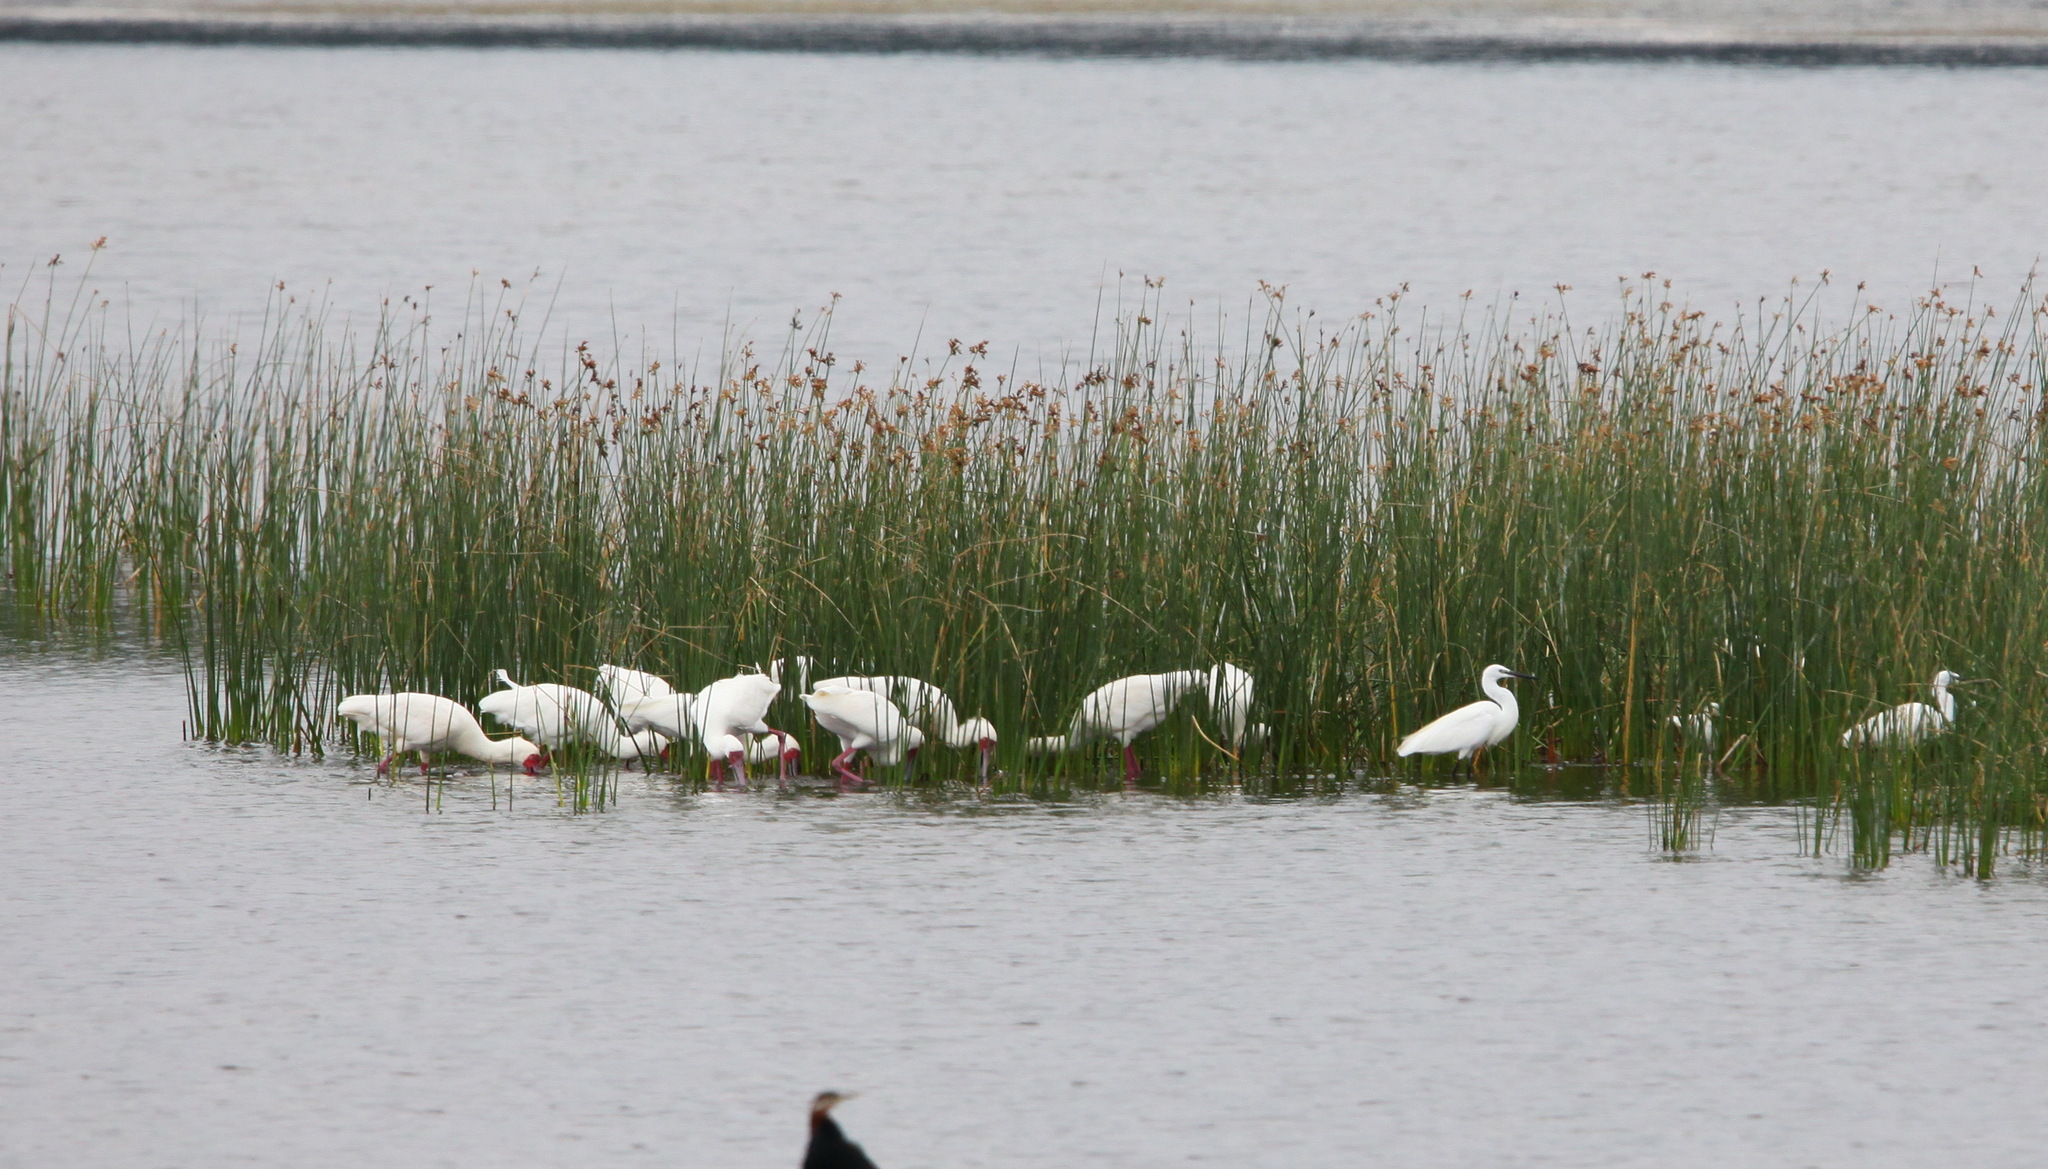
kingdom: Animalia
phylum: Chordata
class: Aves
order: Pelecaniformes
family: Threskiornithidae
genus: Platalea
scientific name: Platalea alba
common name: African spoonbill
